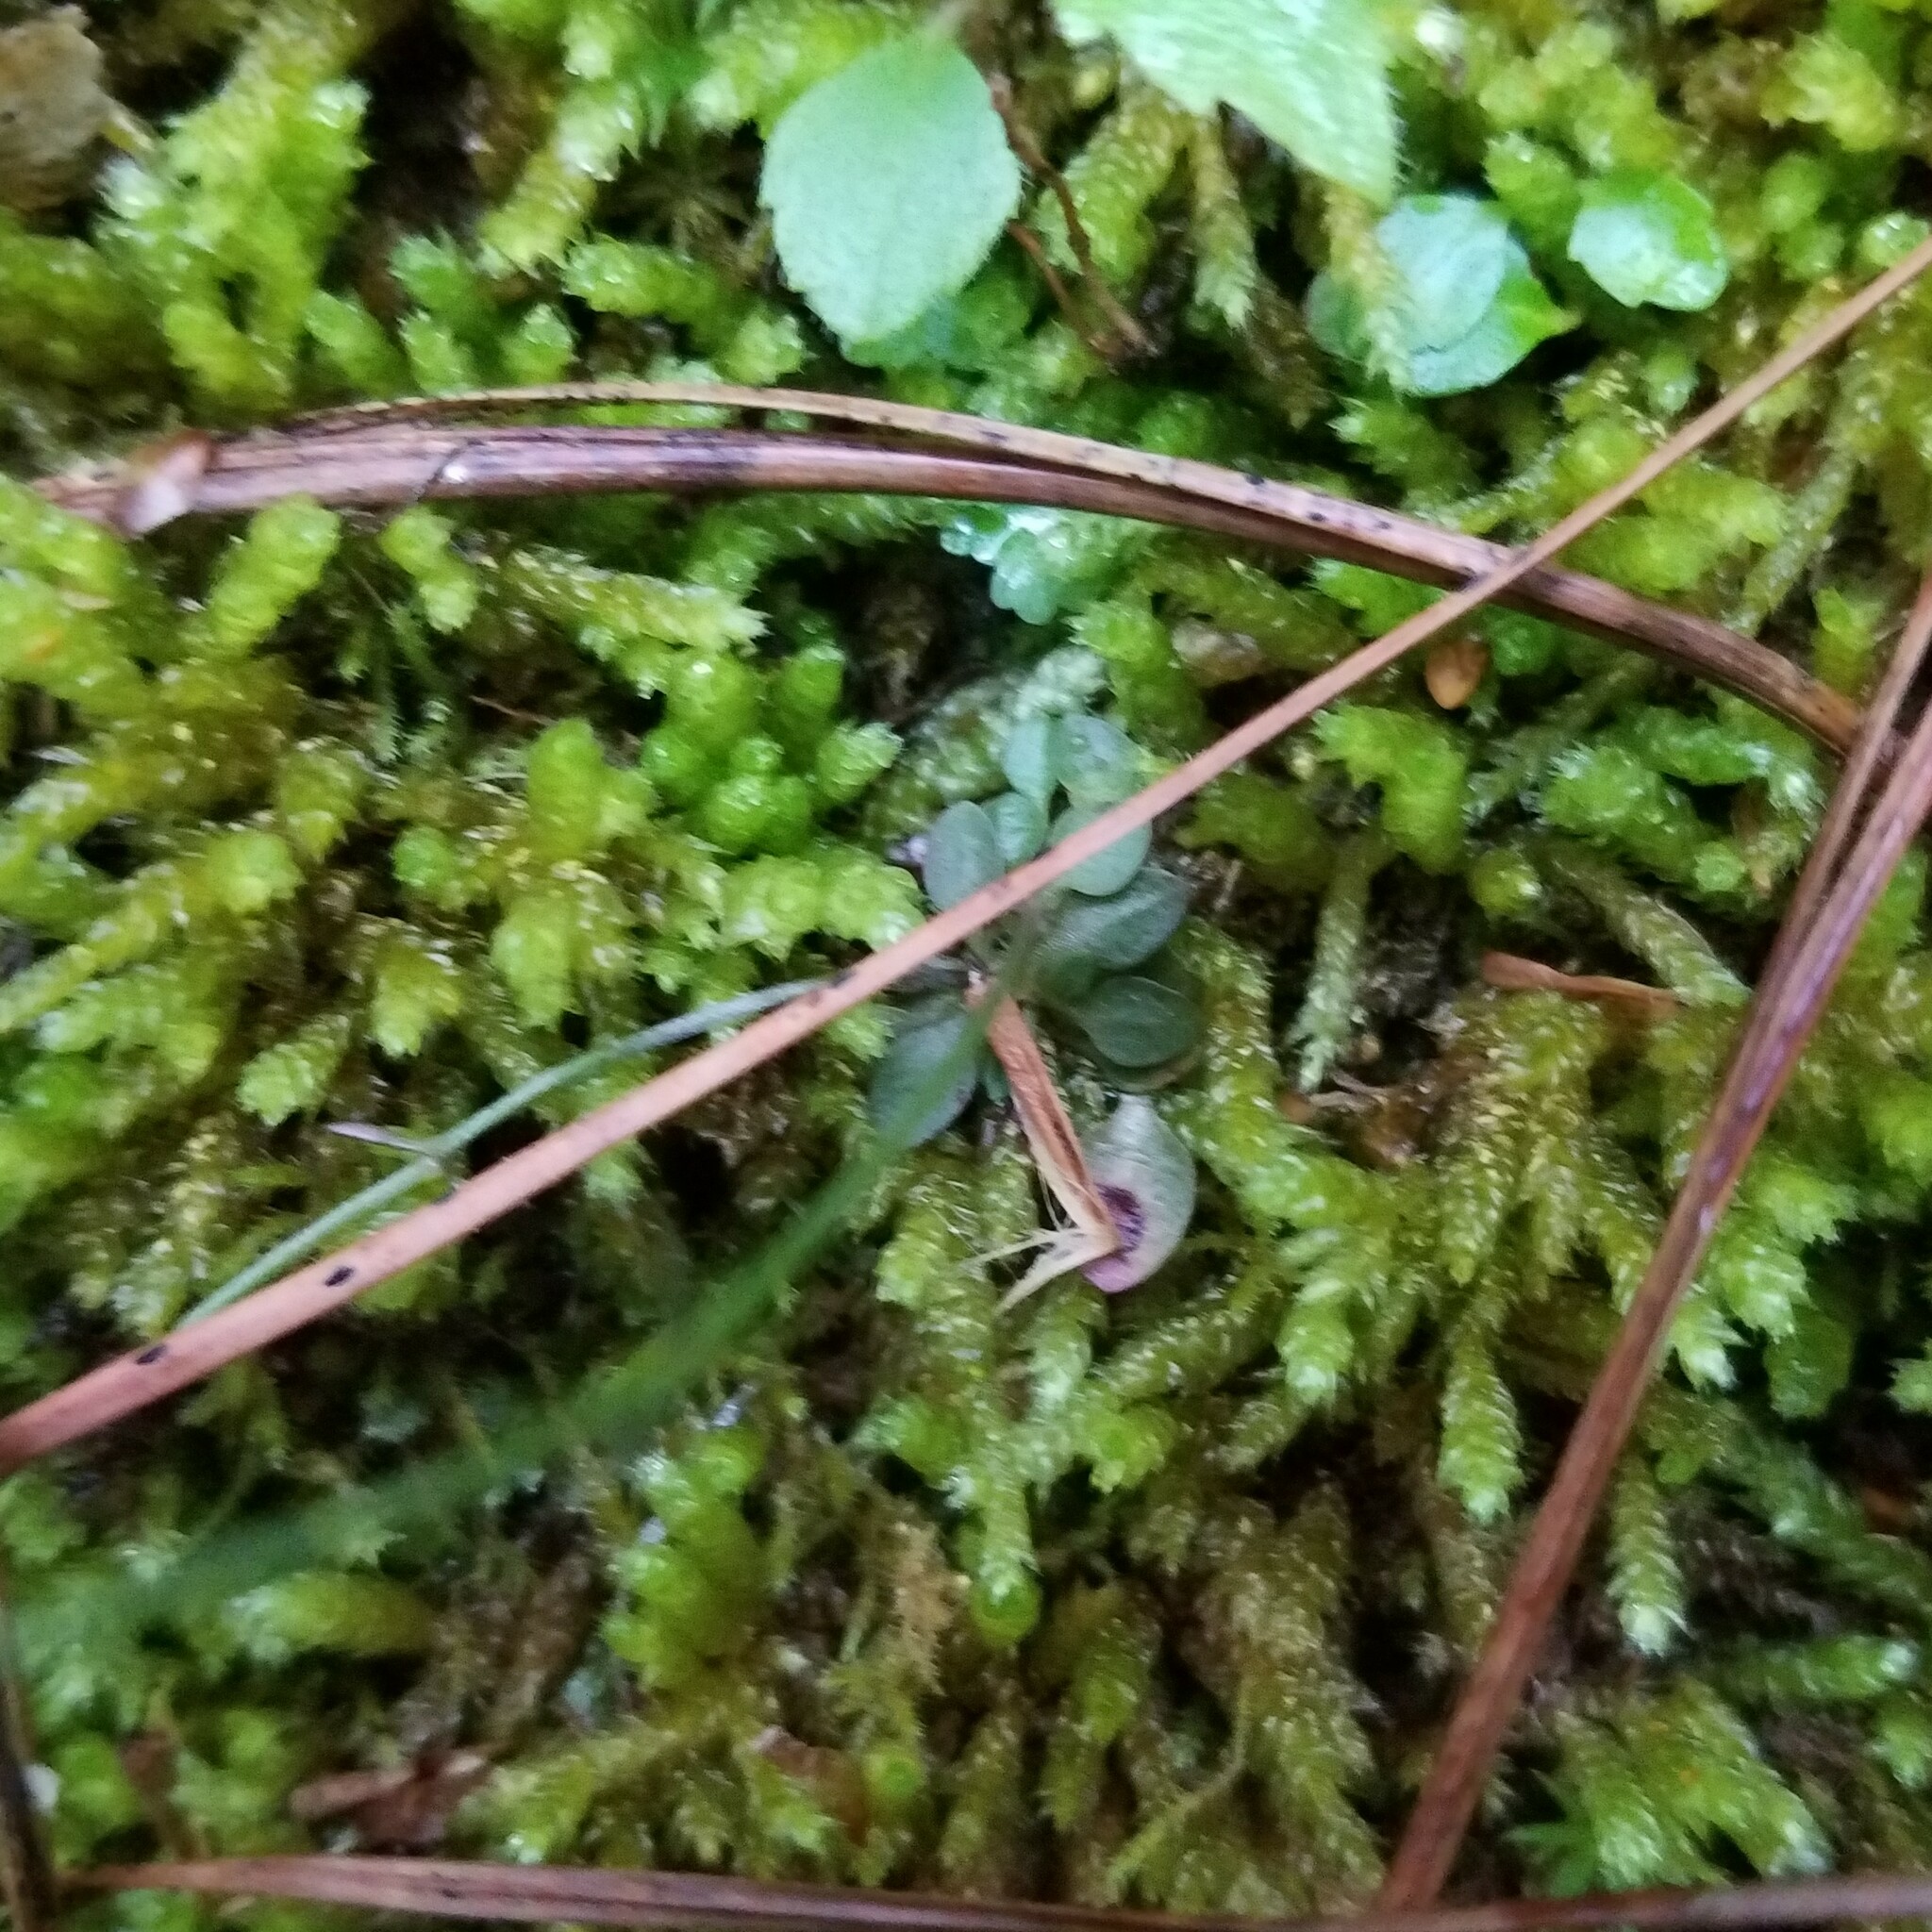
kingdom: Plantae
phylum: Tracheophyta
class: Magnoliopsida
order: Gentianales
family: Rubiaceae
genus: Houstonia
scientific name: Houstonia caerulea
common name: Bluets
